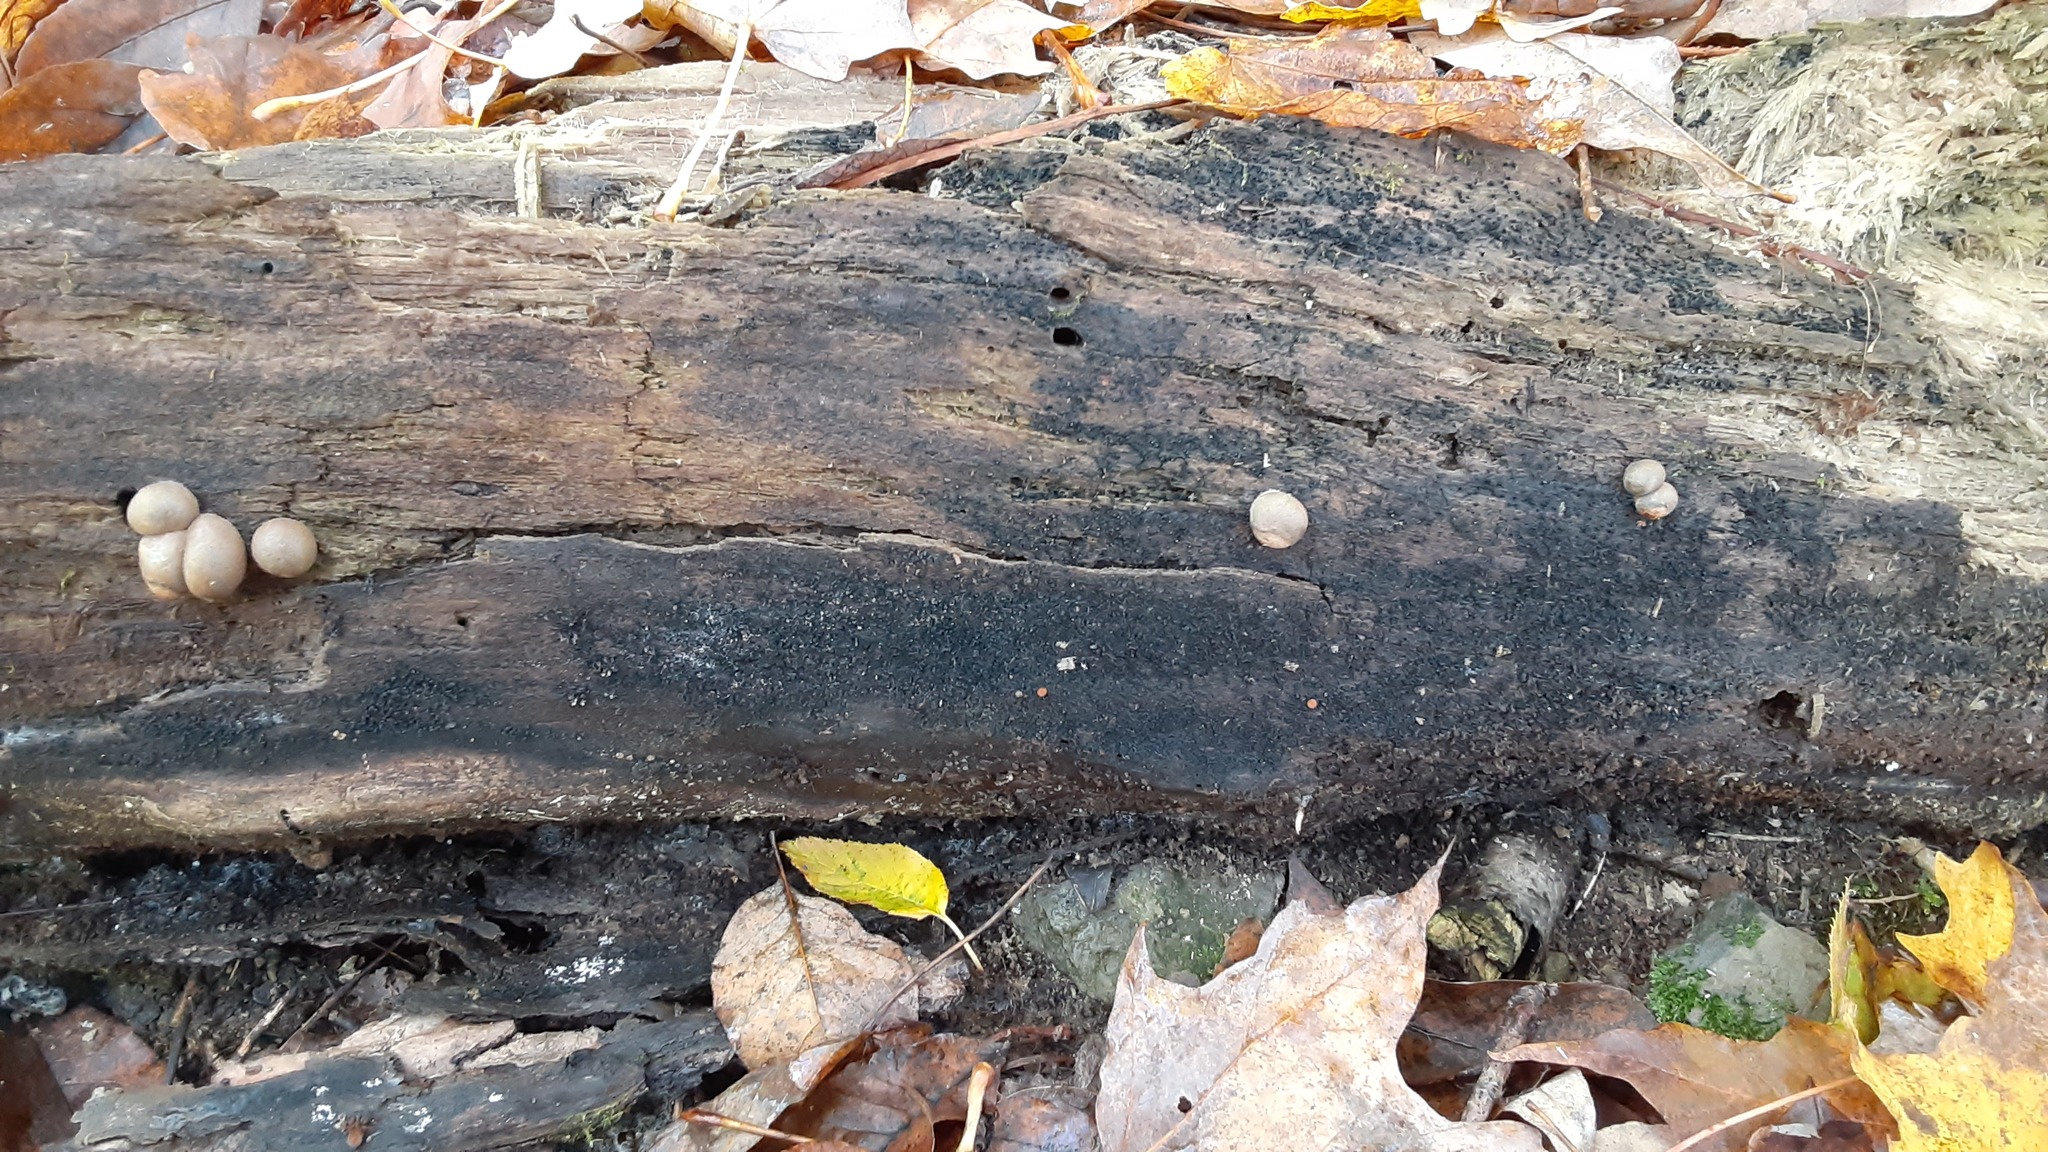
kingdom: Protozoa
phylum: Mycetozoa
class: Myxomycetes
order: Cribrariales
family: Tubiferaceae
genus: Lycogala
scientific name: Lycogala epidendrum
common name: Wolf's milk
